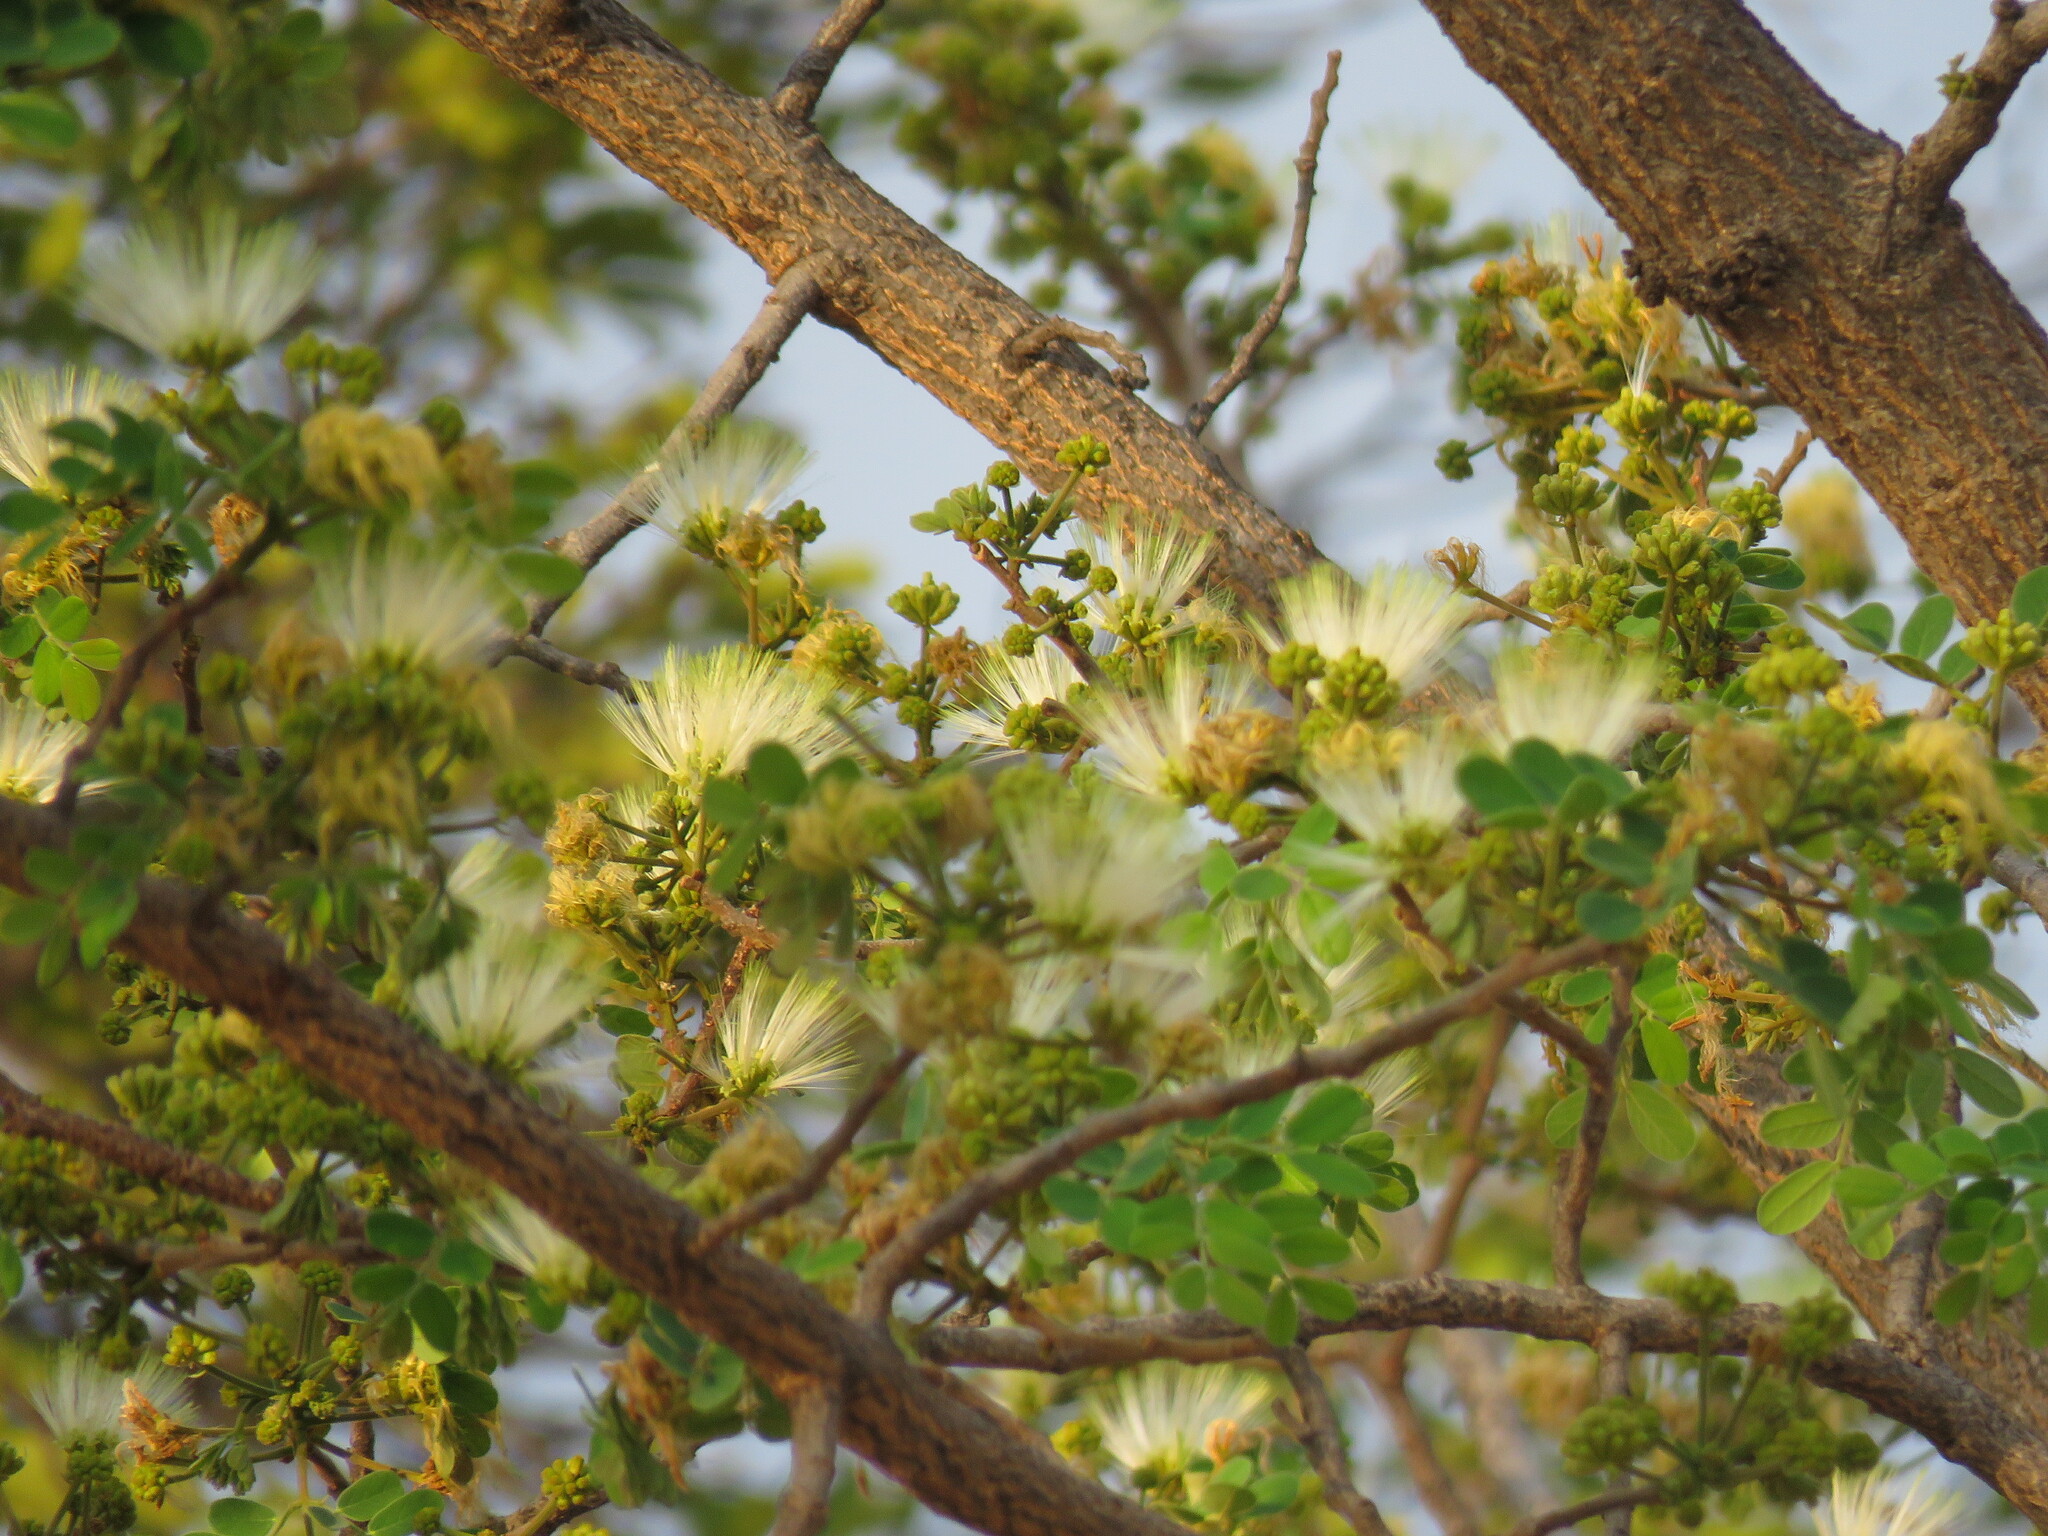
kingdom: Plantae
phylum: Tracheophyta
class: Magnoliopsida
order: Fabales
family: Fabaceae
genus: Albizia
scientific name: Albizia lebbeck
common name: Woman's tongue
